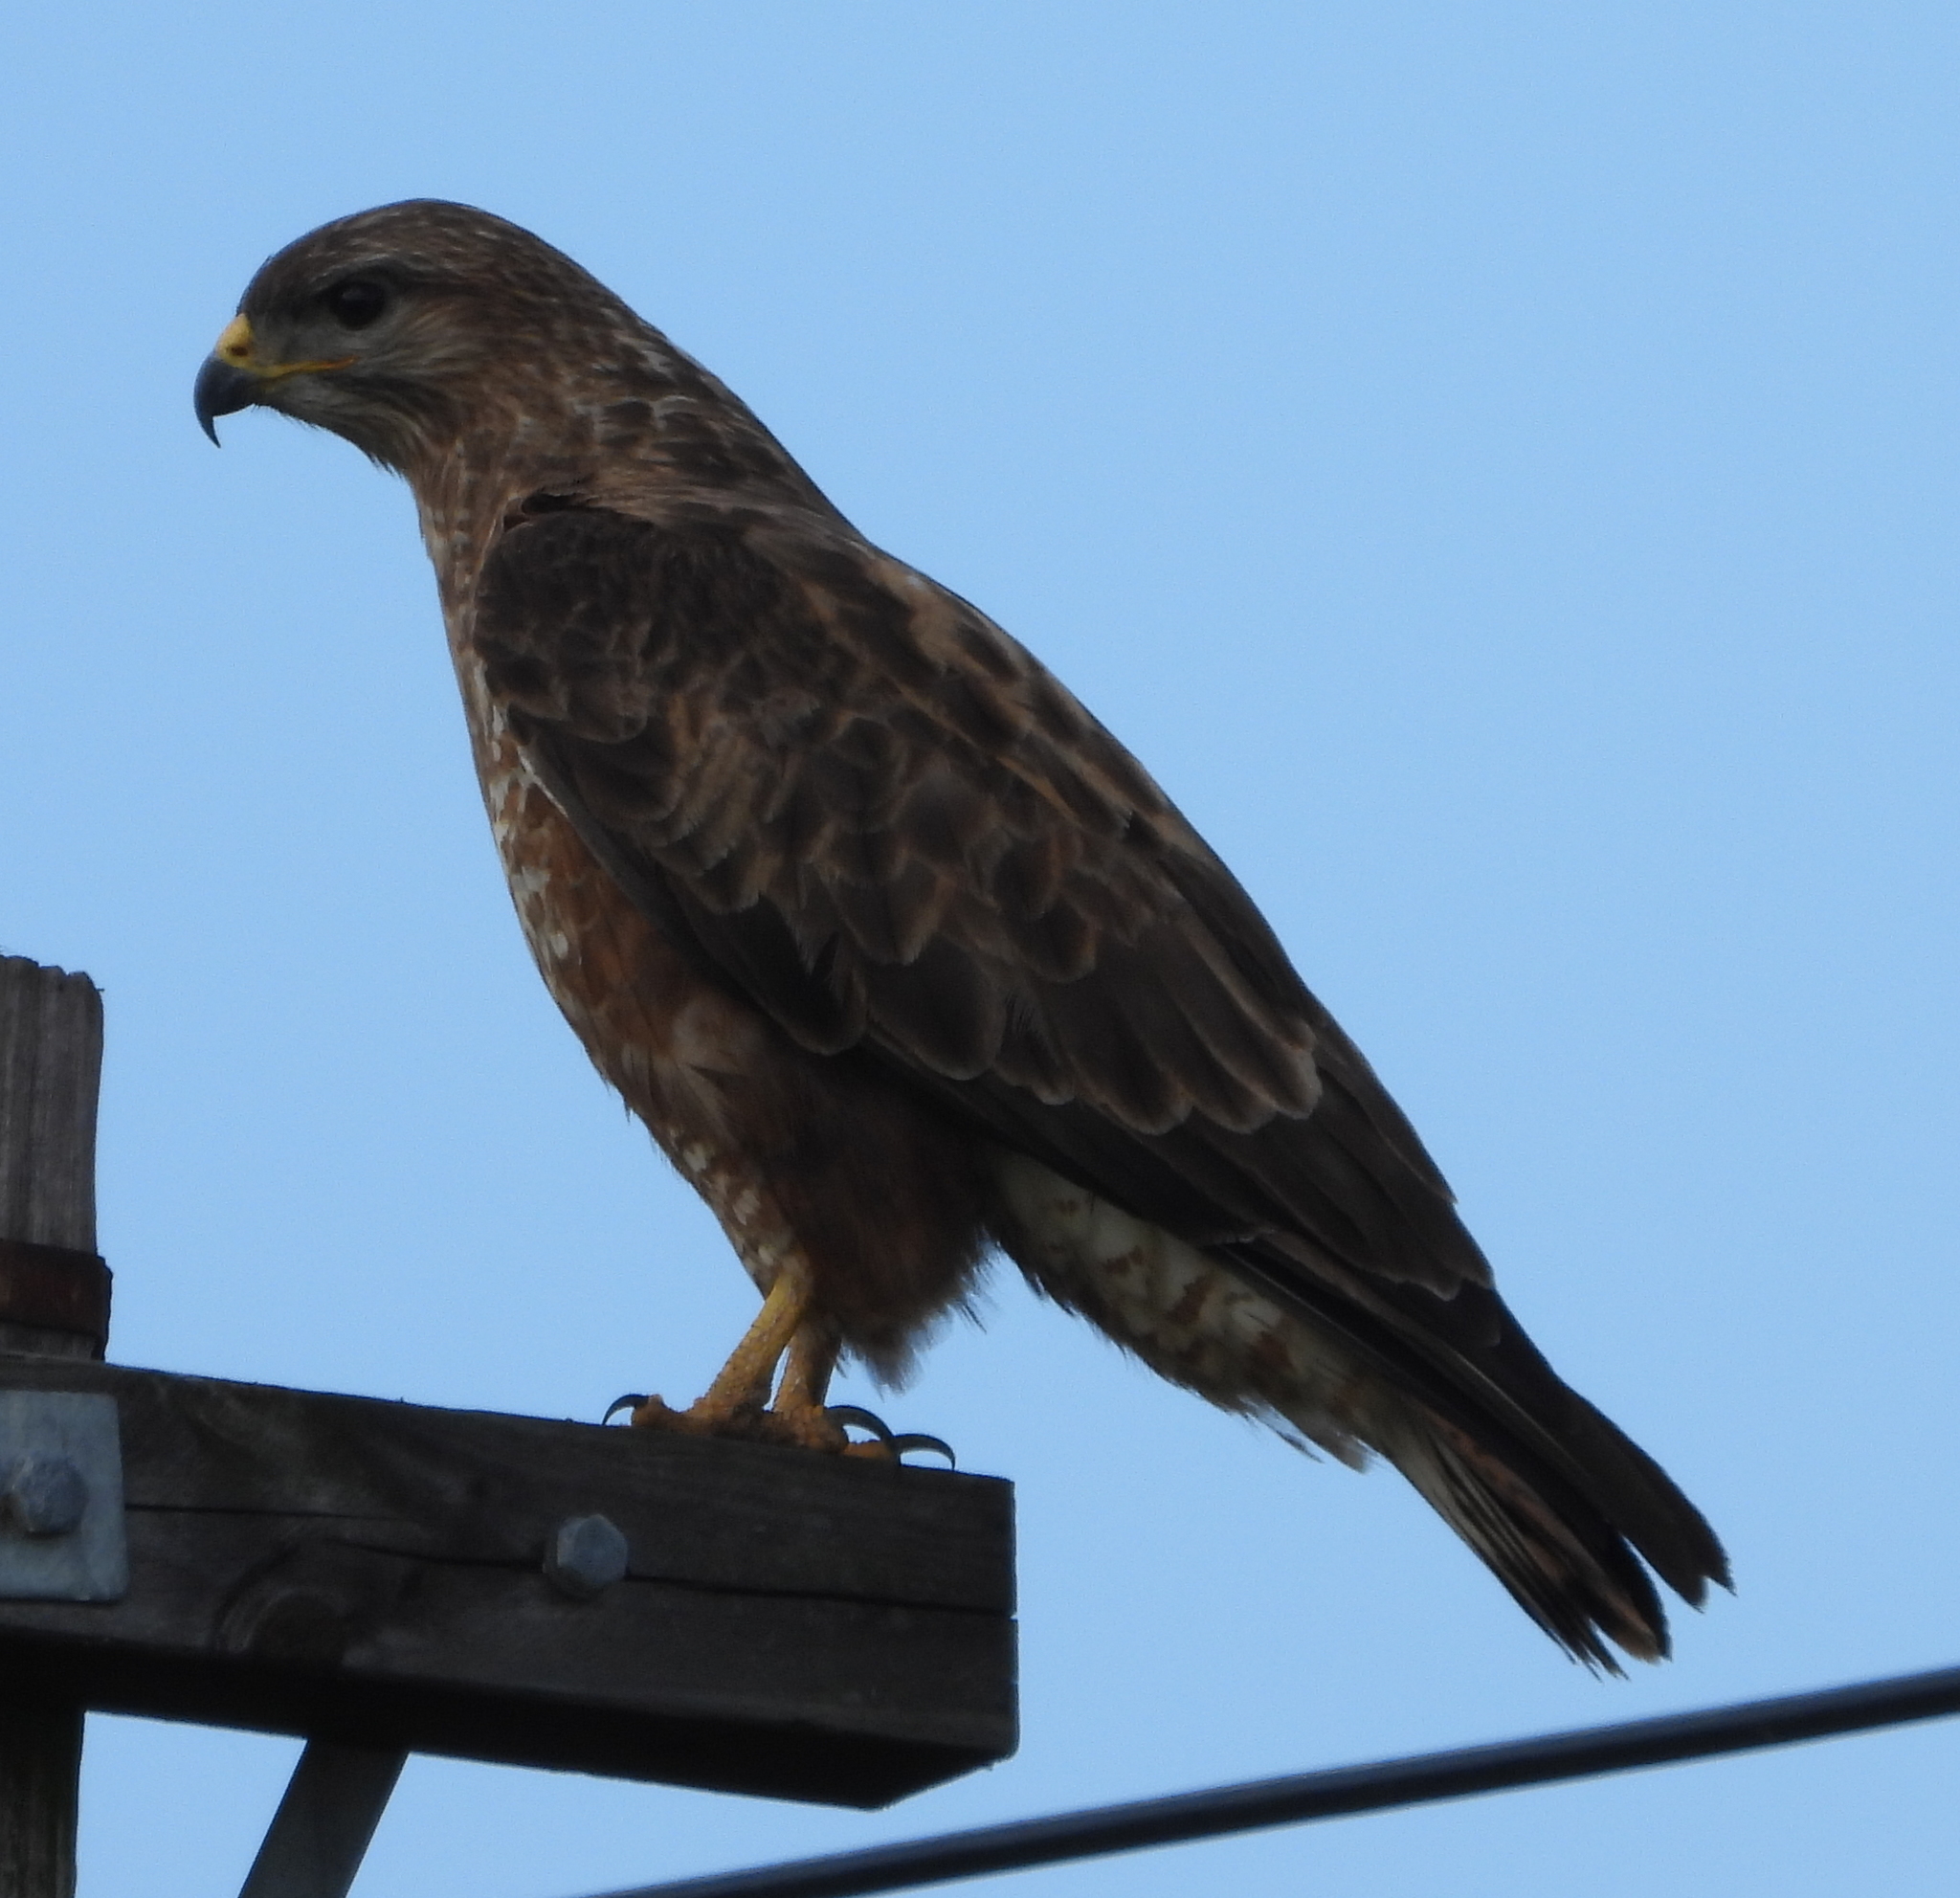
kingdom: Animalia
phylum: Chordata
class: Aves
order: Accipitriformes
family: Accipitridae
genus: Buteo
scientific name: Buteo buteo
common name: Common buzzard
